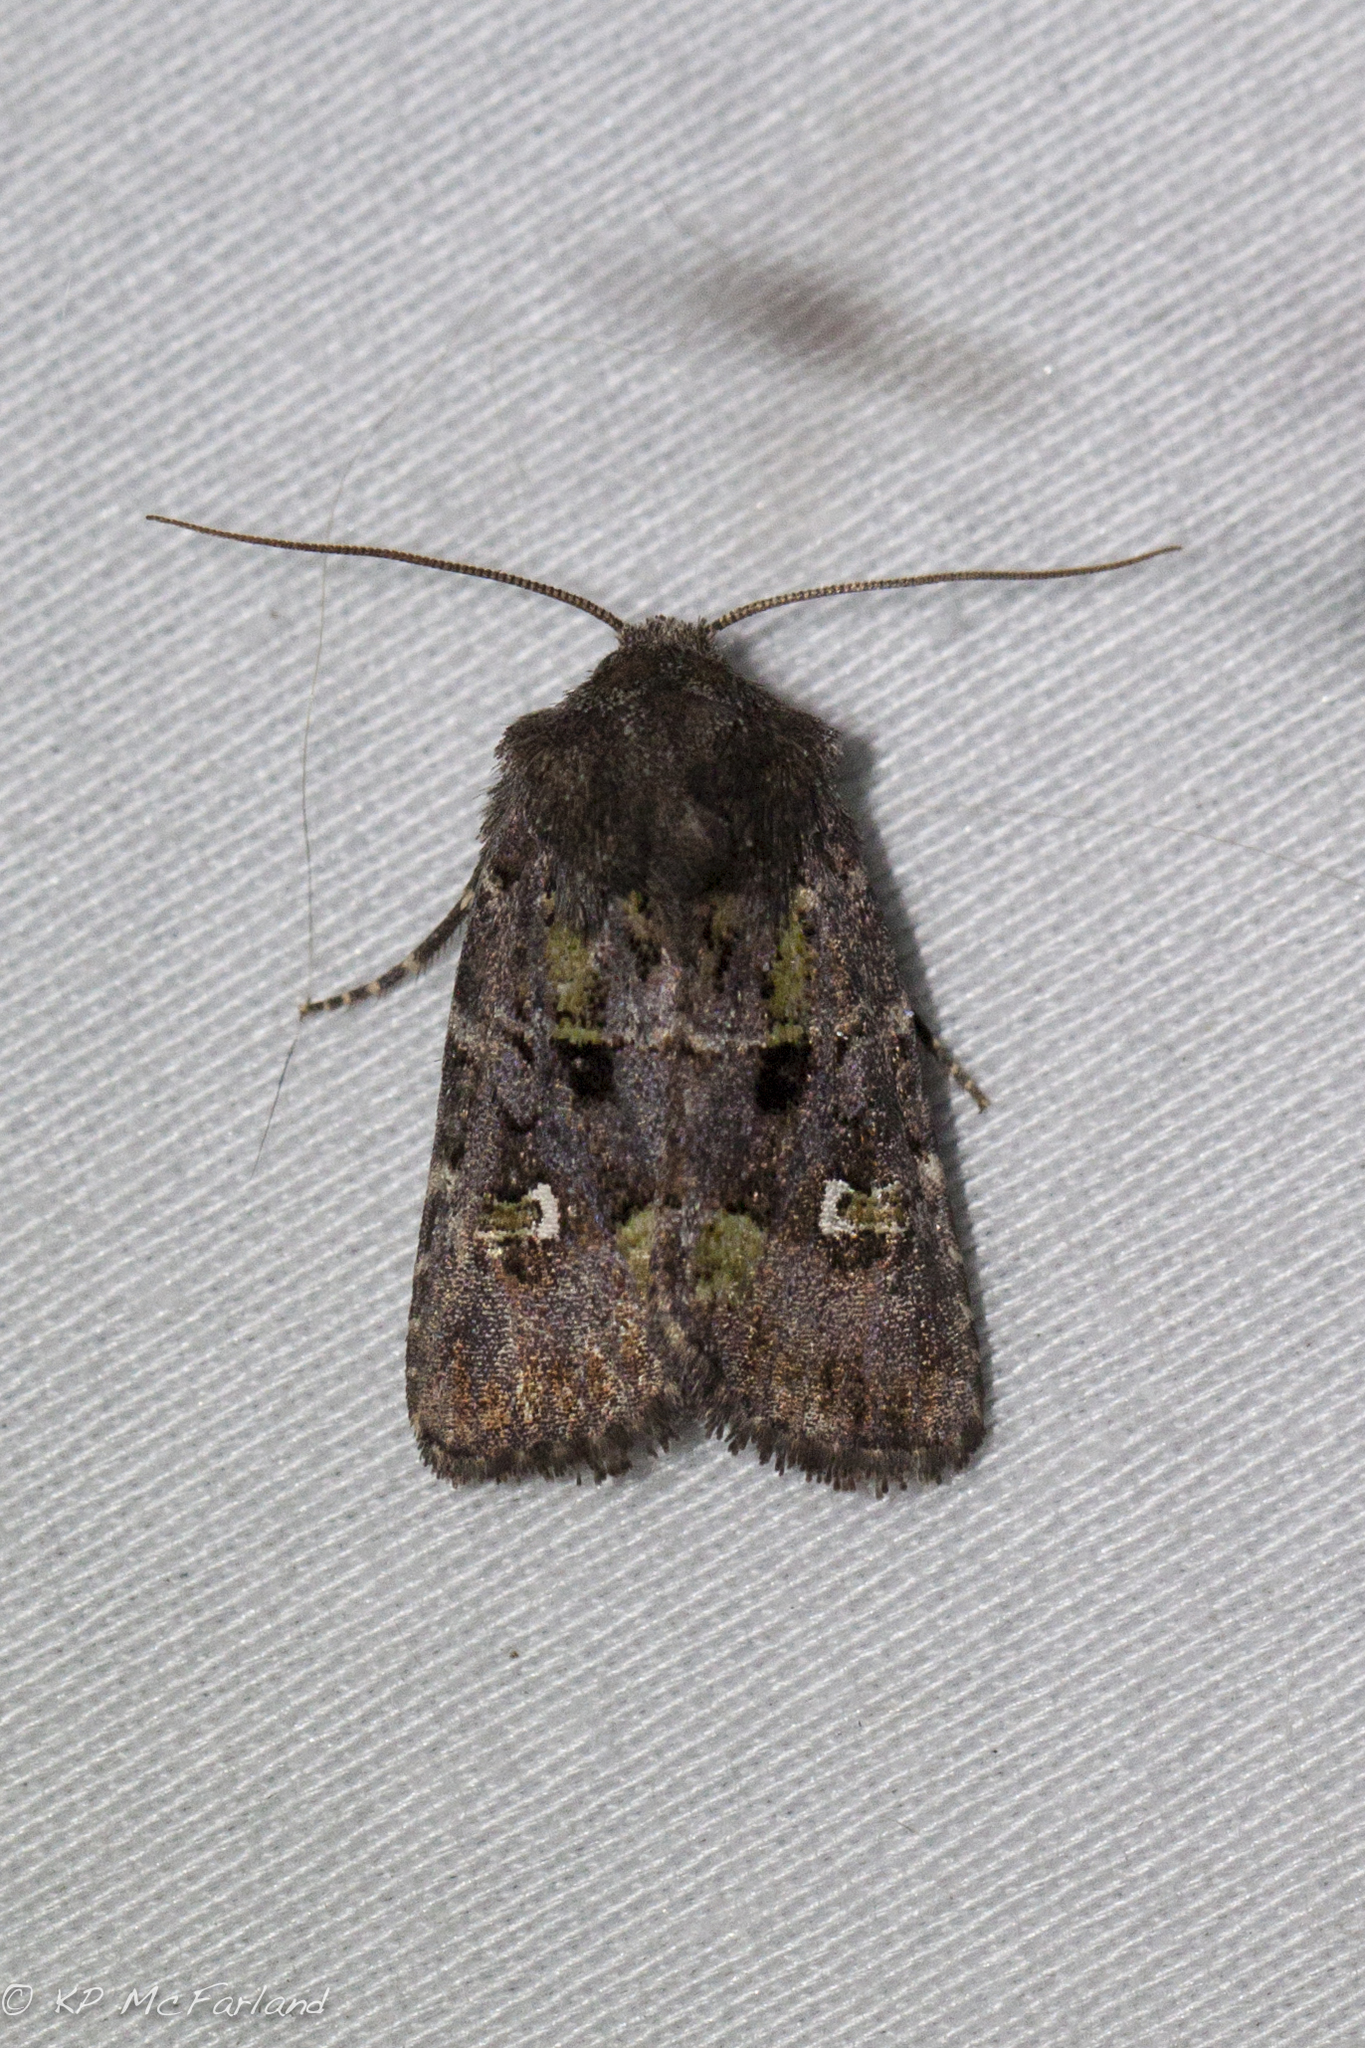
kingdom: Animalia
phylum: Arthropoda
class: Insecta
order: Lepidoptera
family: Noctuidae
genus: Lacinipolia
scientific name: Lacinipolia renigera
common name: Kidney-spotted minor
